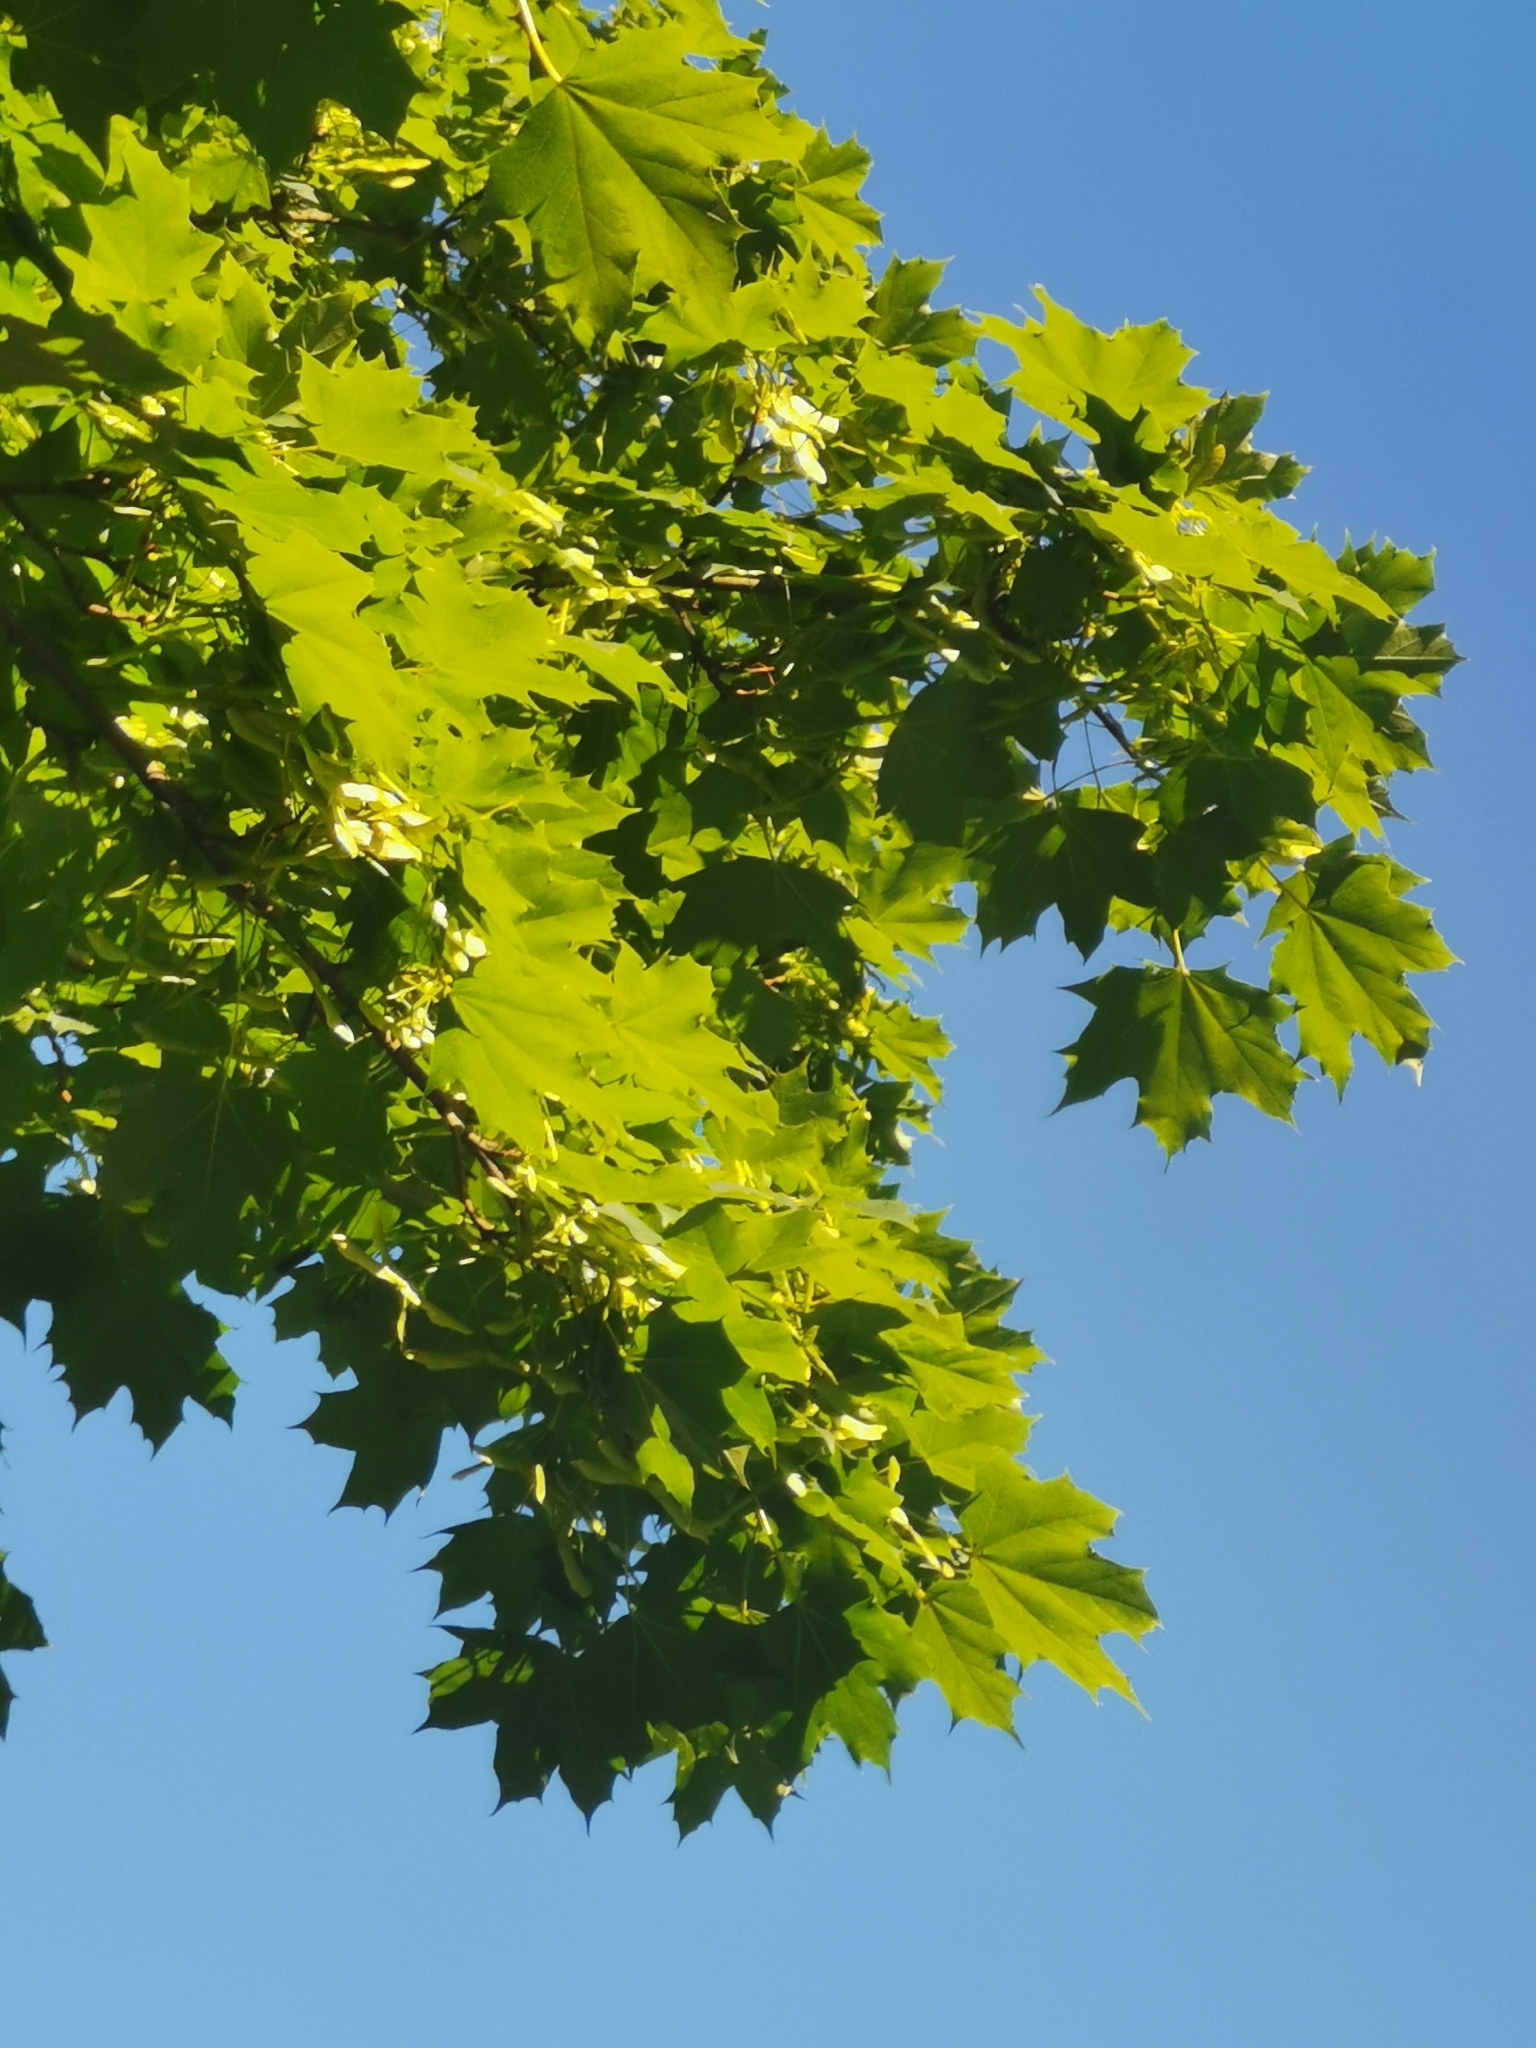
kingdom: Plantae
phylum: Tracheophyta
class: Magnoliopsida
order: Sapindales
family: Sapindaceae
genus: Acer
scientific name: Acer platanoides
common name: Norway maple
